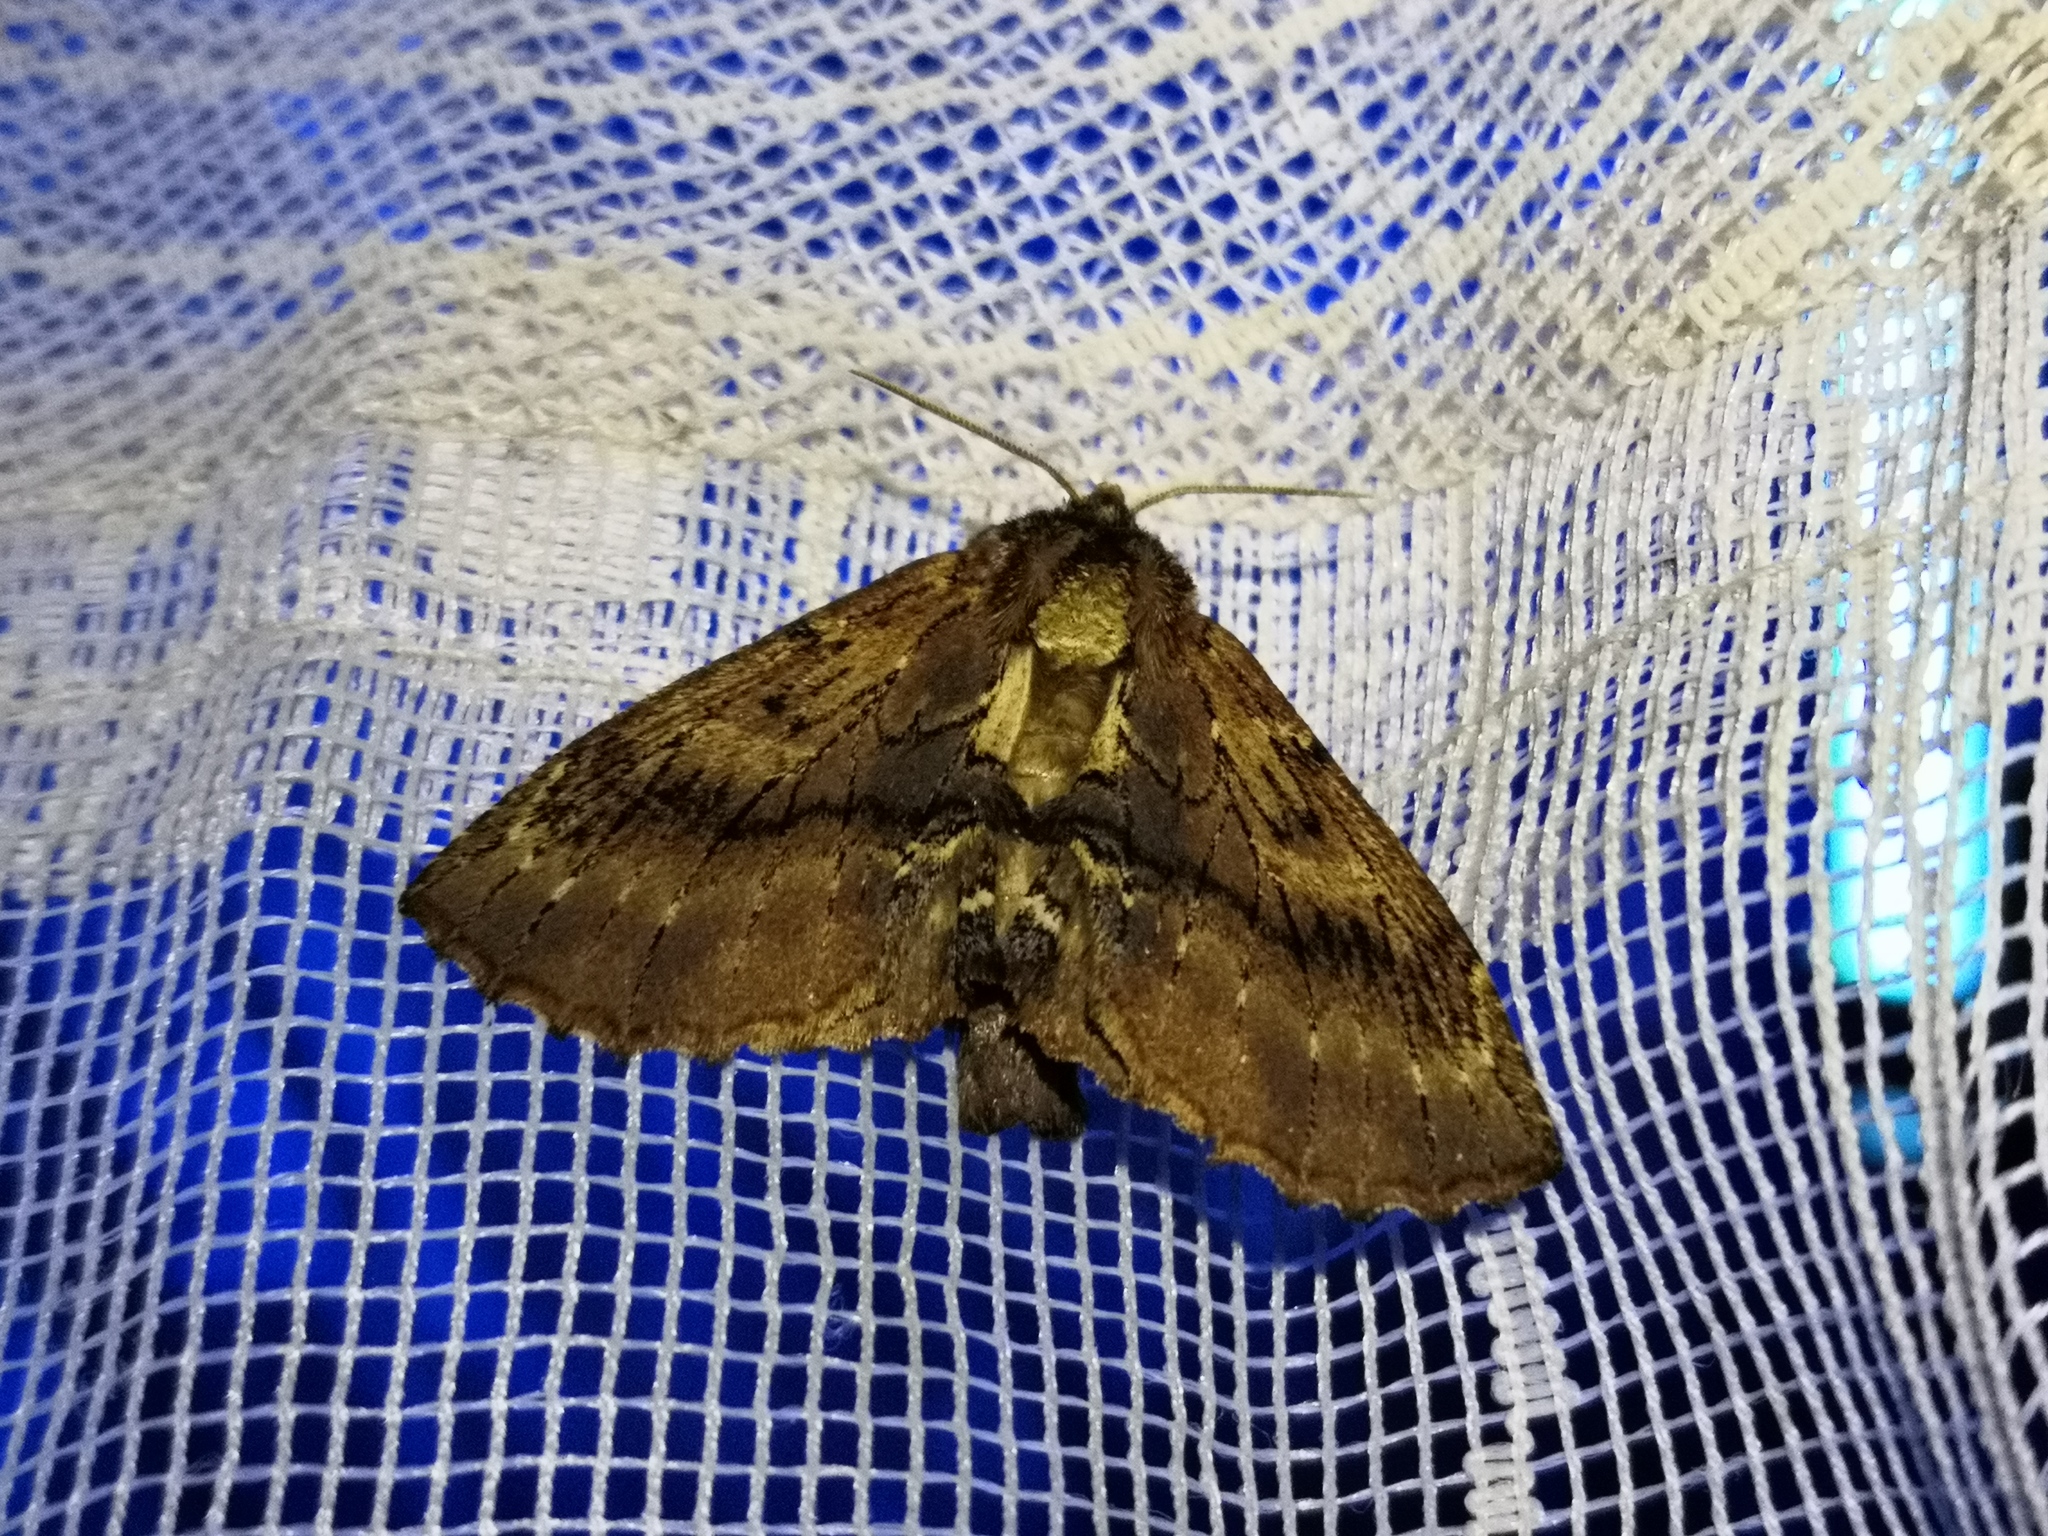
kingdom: Animalia
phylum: Arthropoda
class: Insecta
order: Lepidoptera
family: Notodontidae
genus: Ptilodon
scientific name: Ptilodon capucina
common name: Coxcomb prominent
